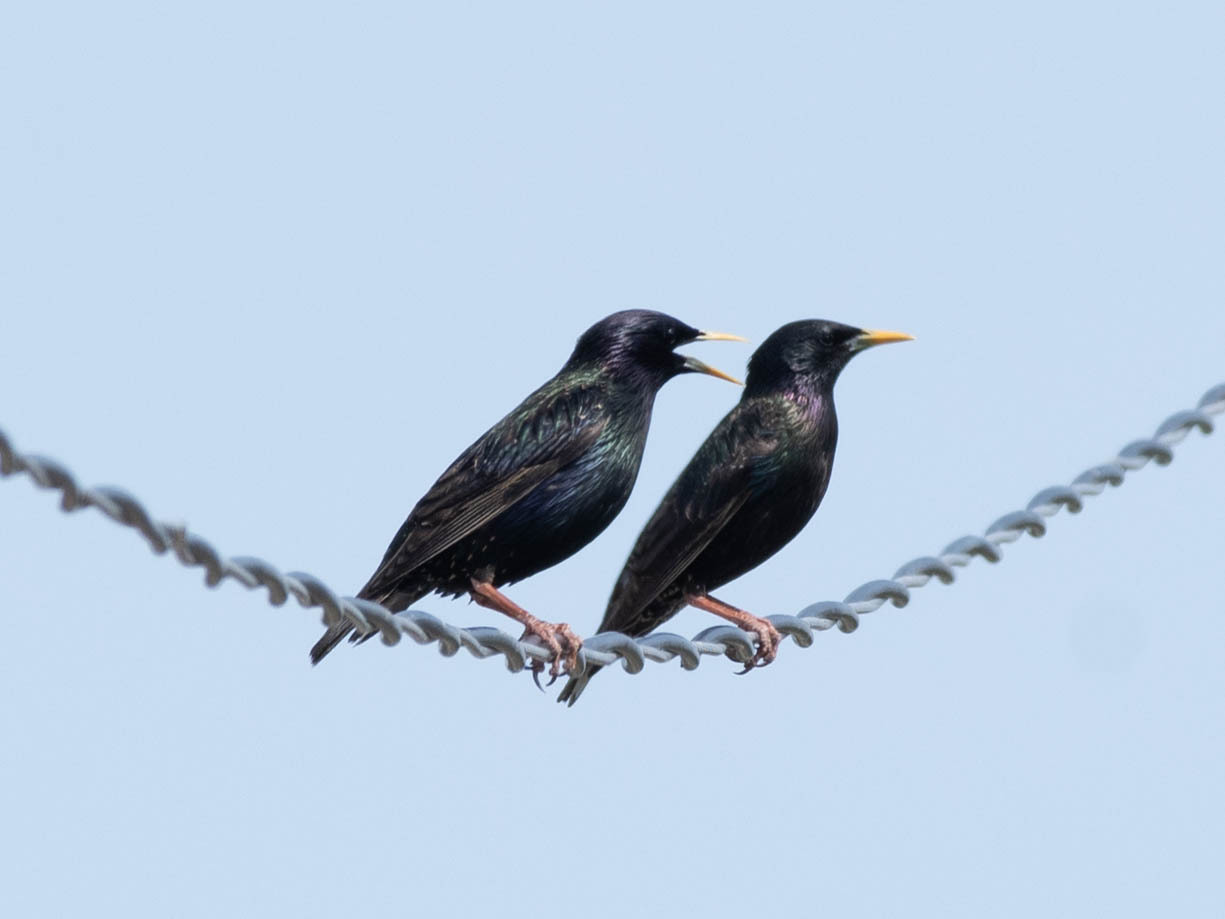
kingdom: Animalia
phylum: Chordata
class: Aves
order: Passeriformes
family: Sturnidae
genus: Sturnus
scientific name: Sturnus vulgaris
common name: Common starling
